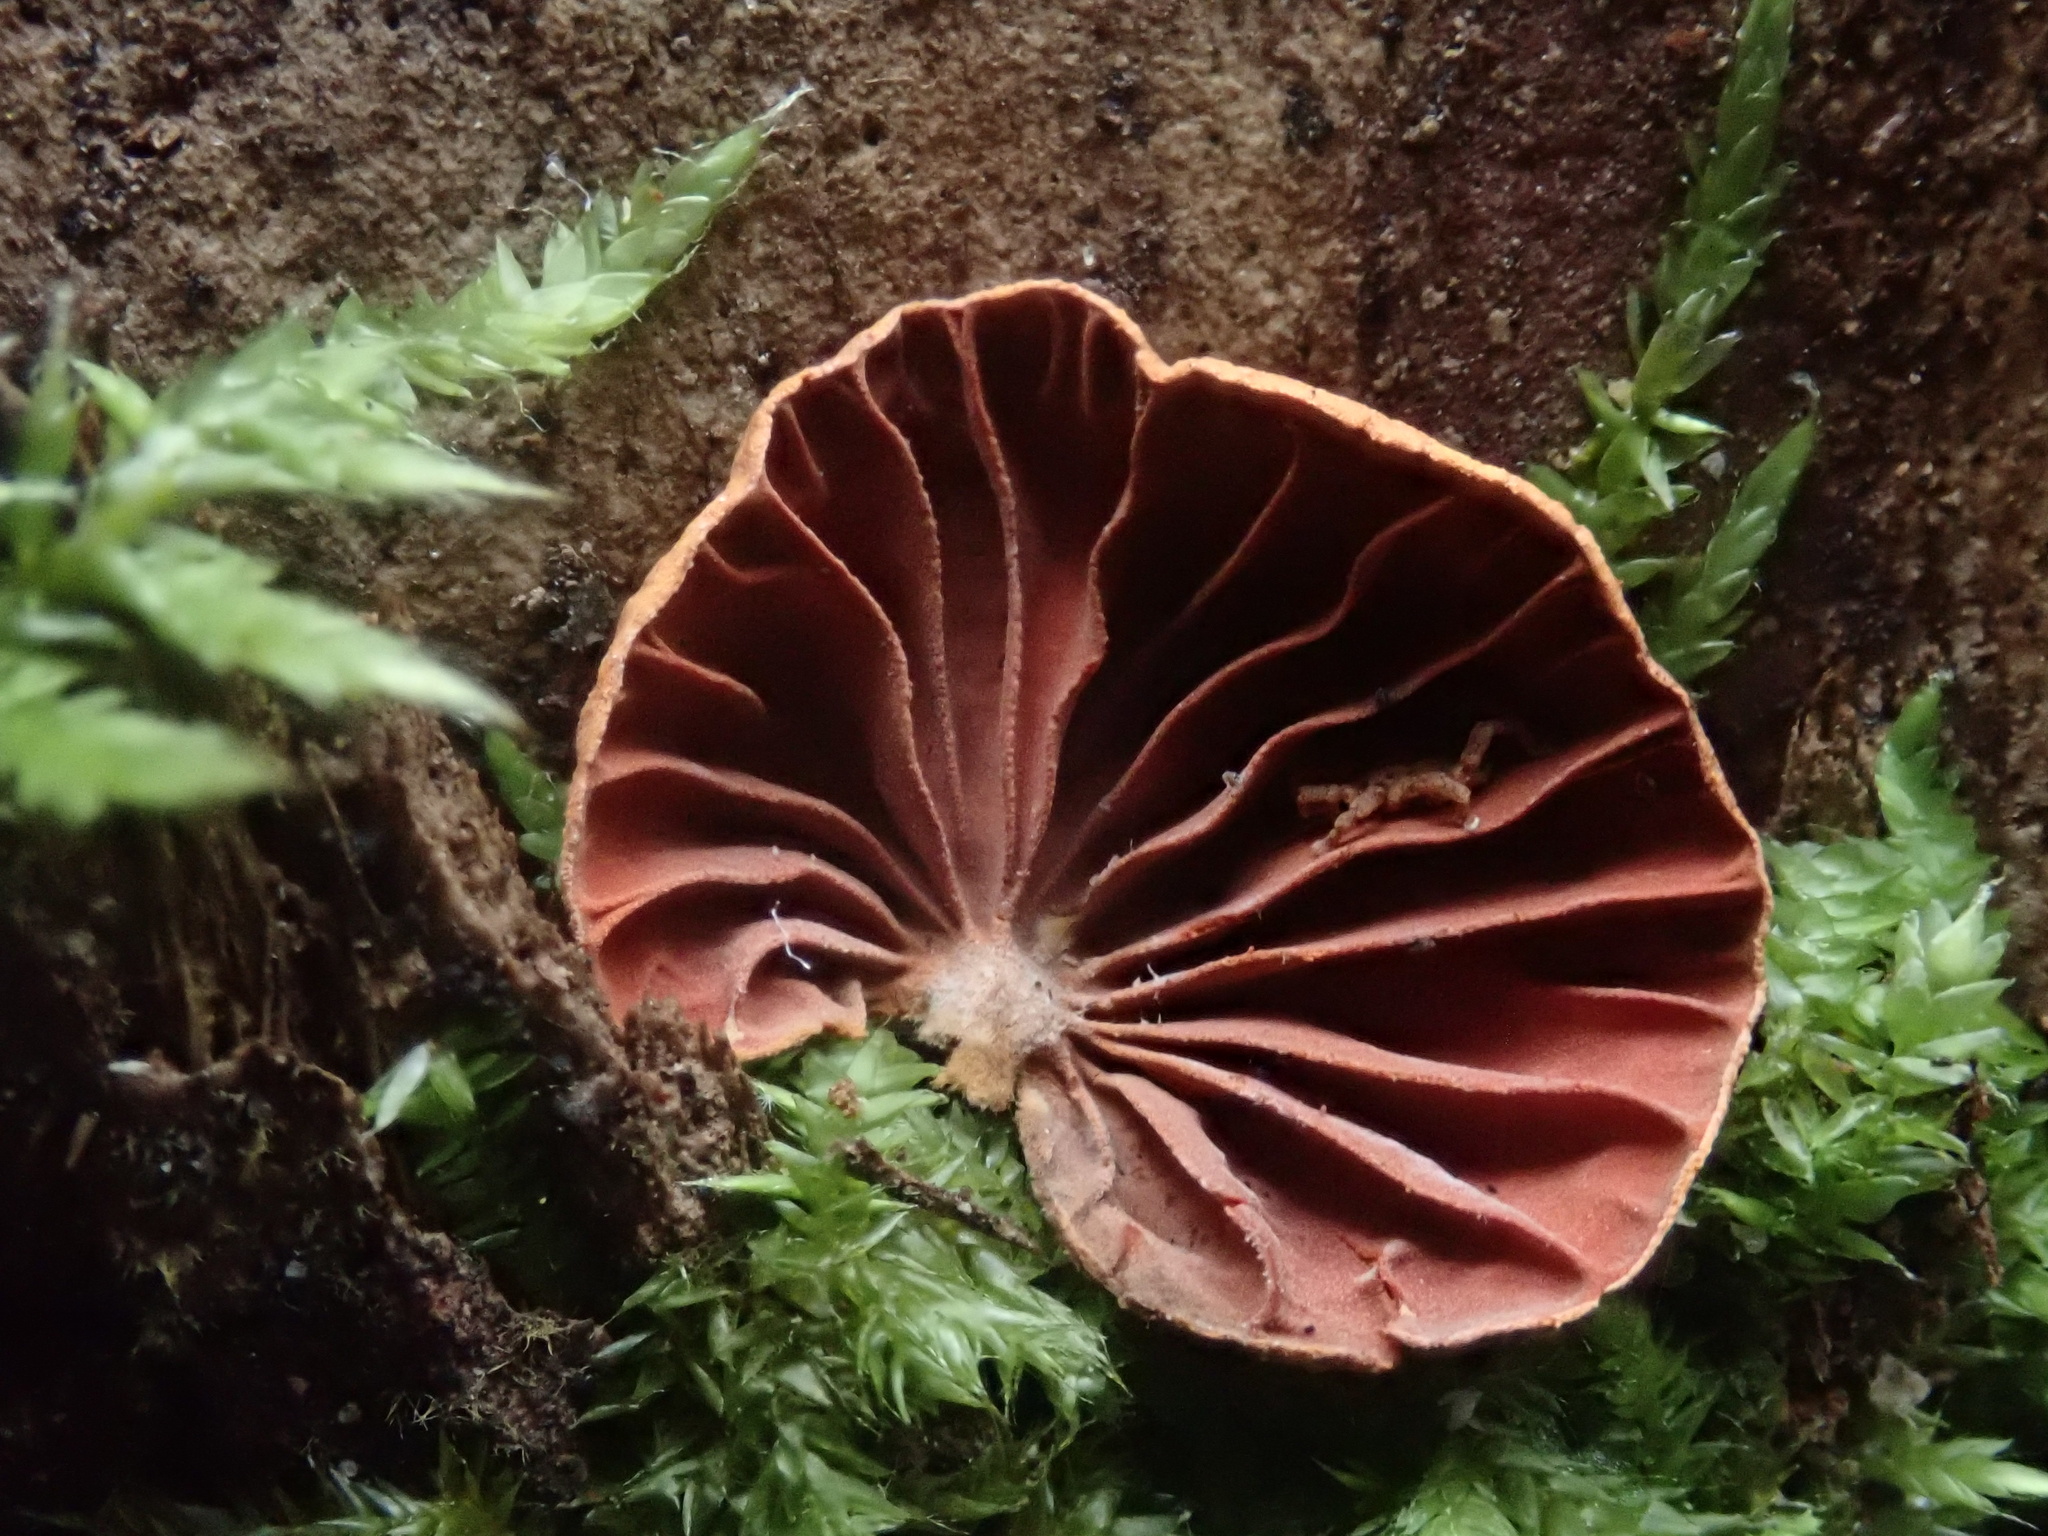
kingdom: Fungi
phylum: Basidiomycota
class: Agaricomycetes
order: Agaricales
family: Omphalotaceae
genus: Anthracophyllum
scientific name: Anthracophyllum archeri
